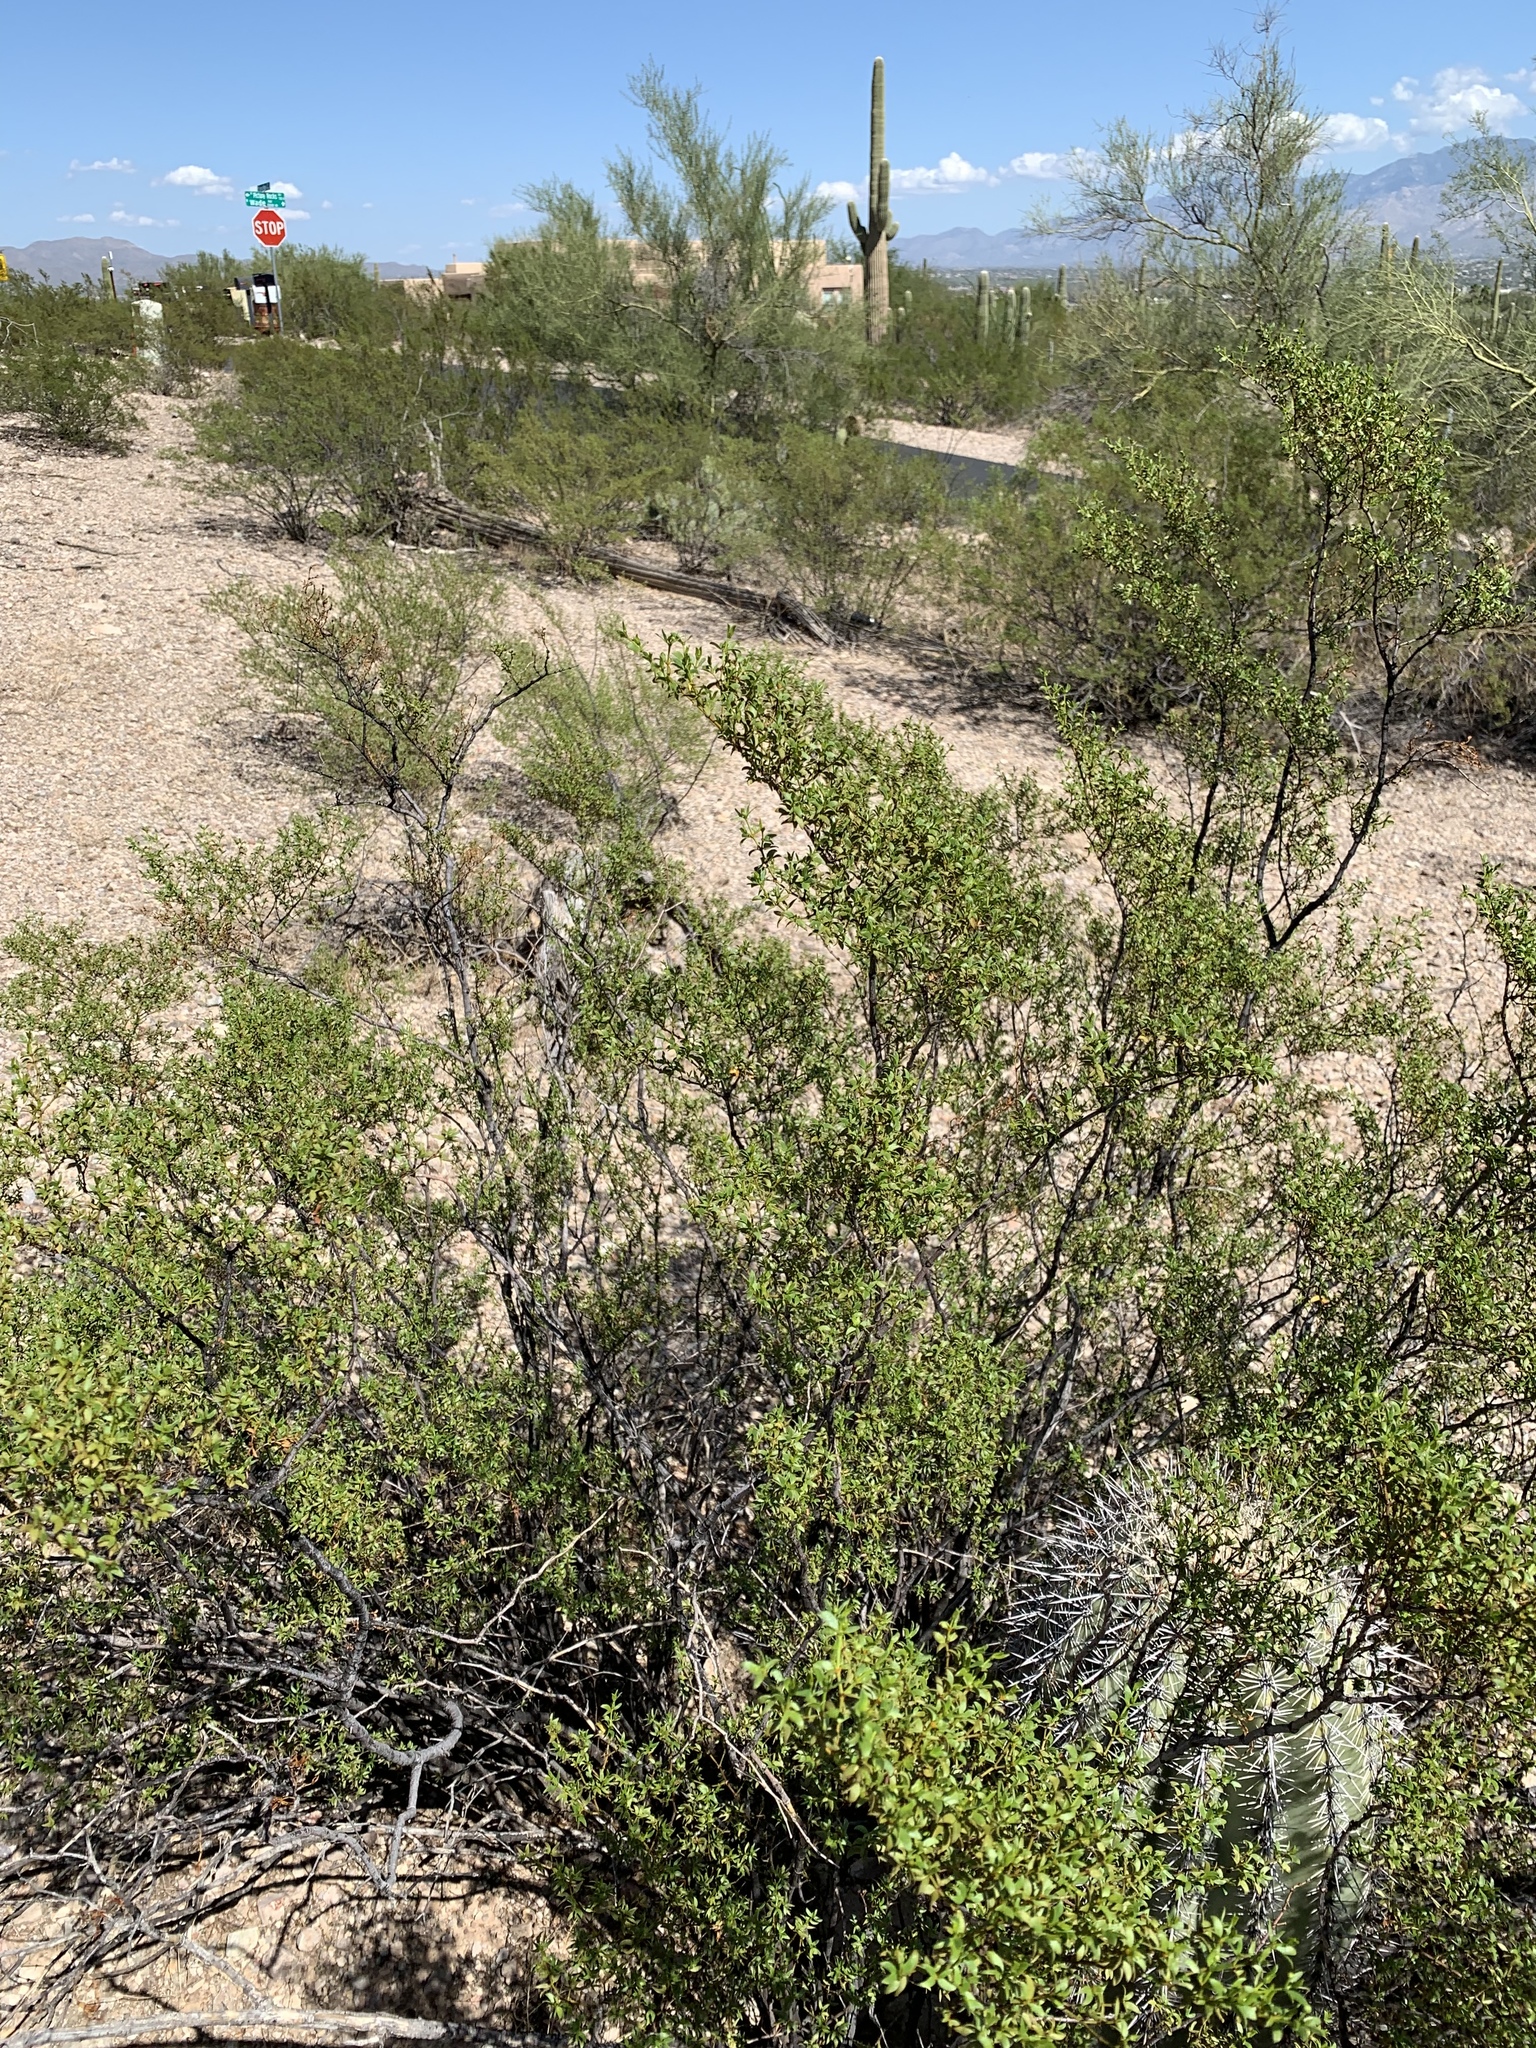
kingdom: Plantae
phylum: Tracheophyta
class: Magnoliopsida
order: Zygophyllales
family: Zygophyllaceae
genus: Larrea
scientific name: Larrea tridentata
